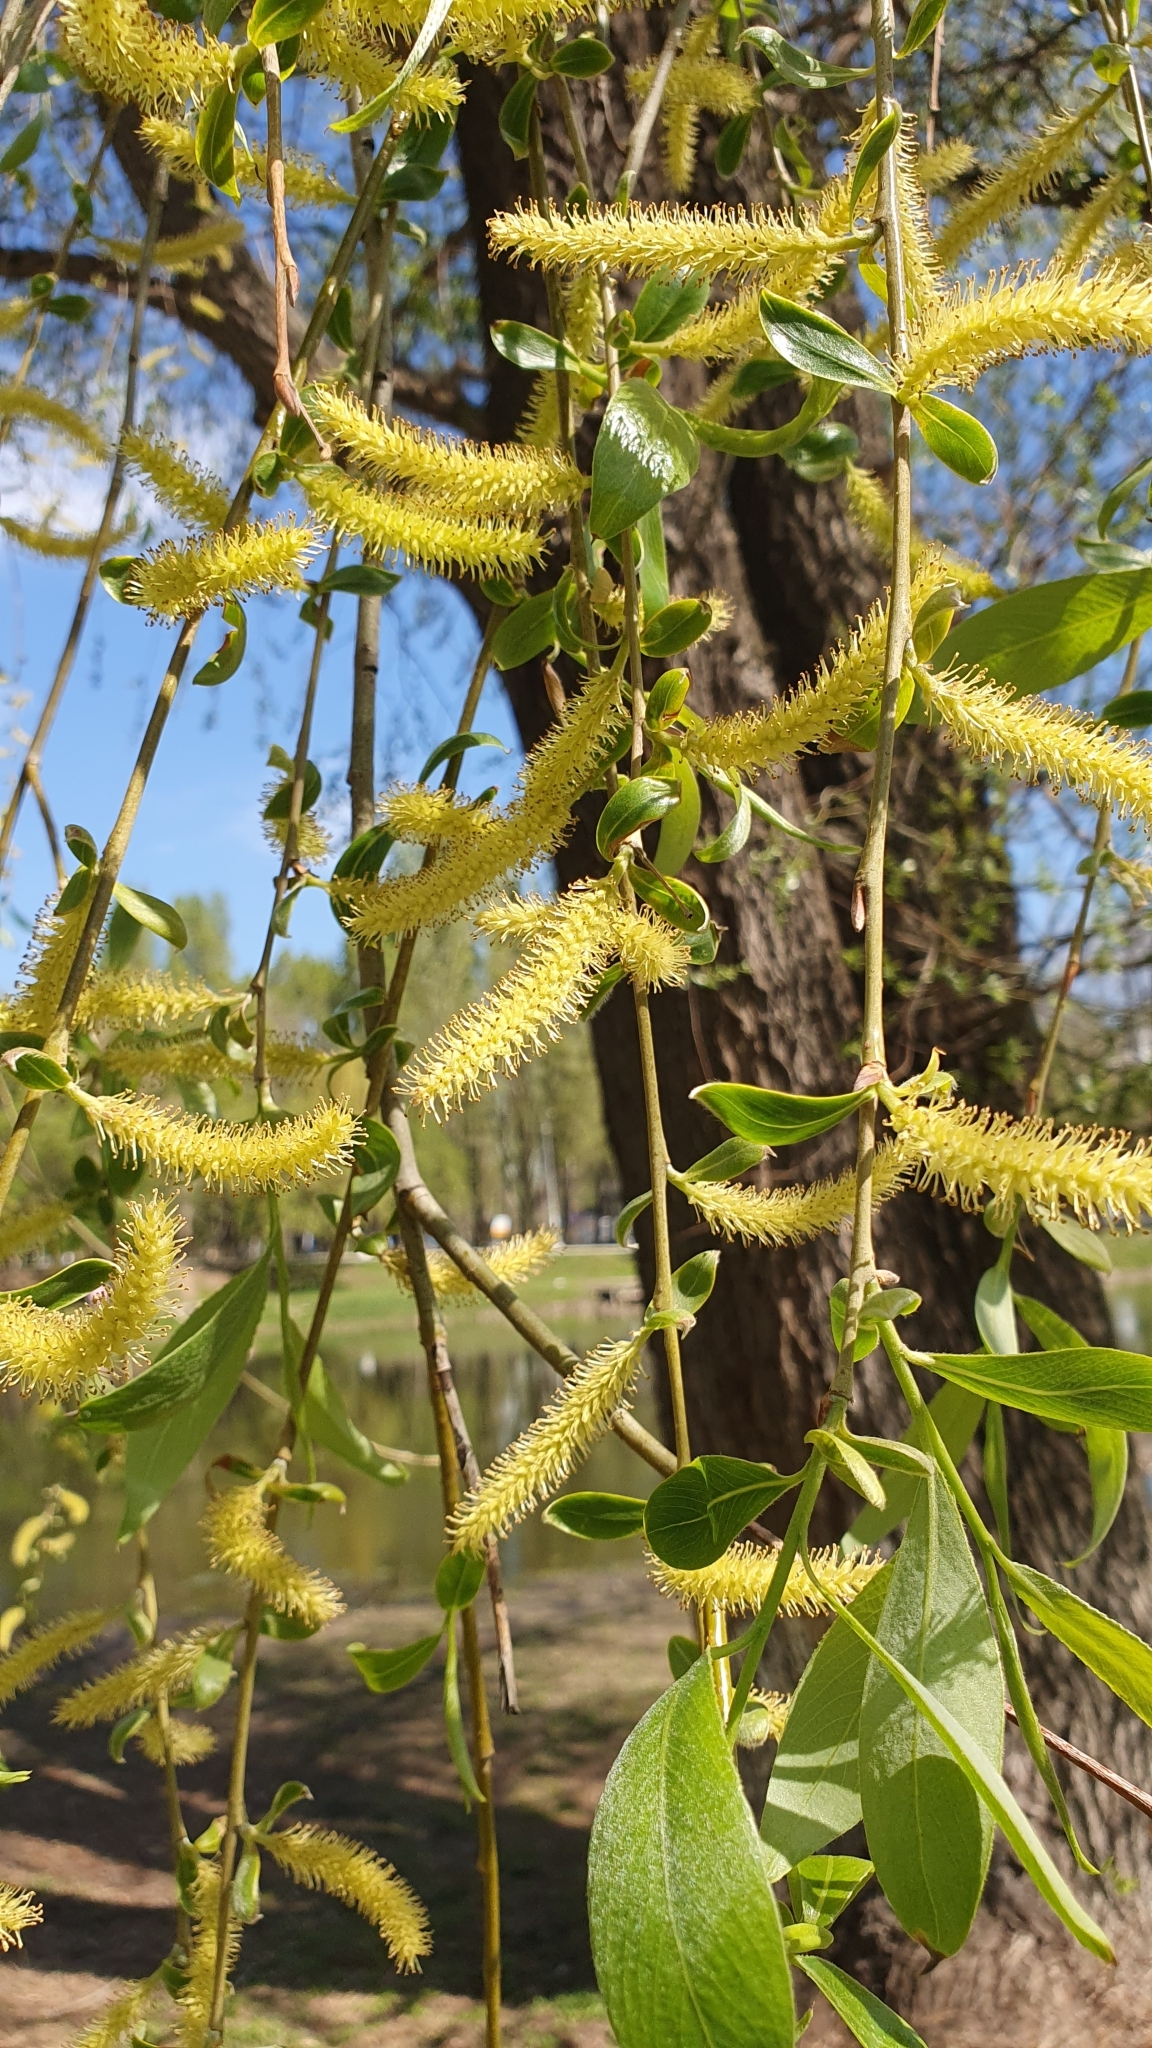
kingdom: Plantae
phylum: Tracheophyta
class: Magnoliopsida
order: Malpighiales
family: Salicaceae
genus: Salix
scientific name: Salix alba
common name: White willow
